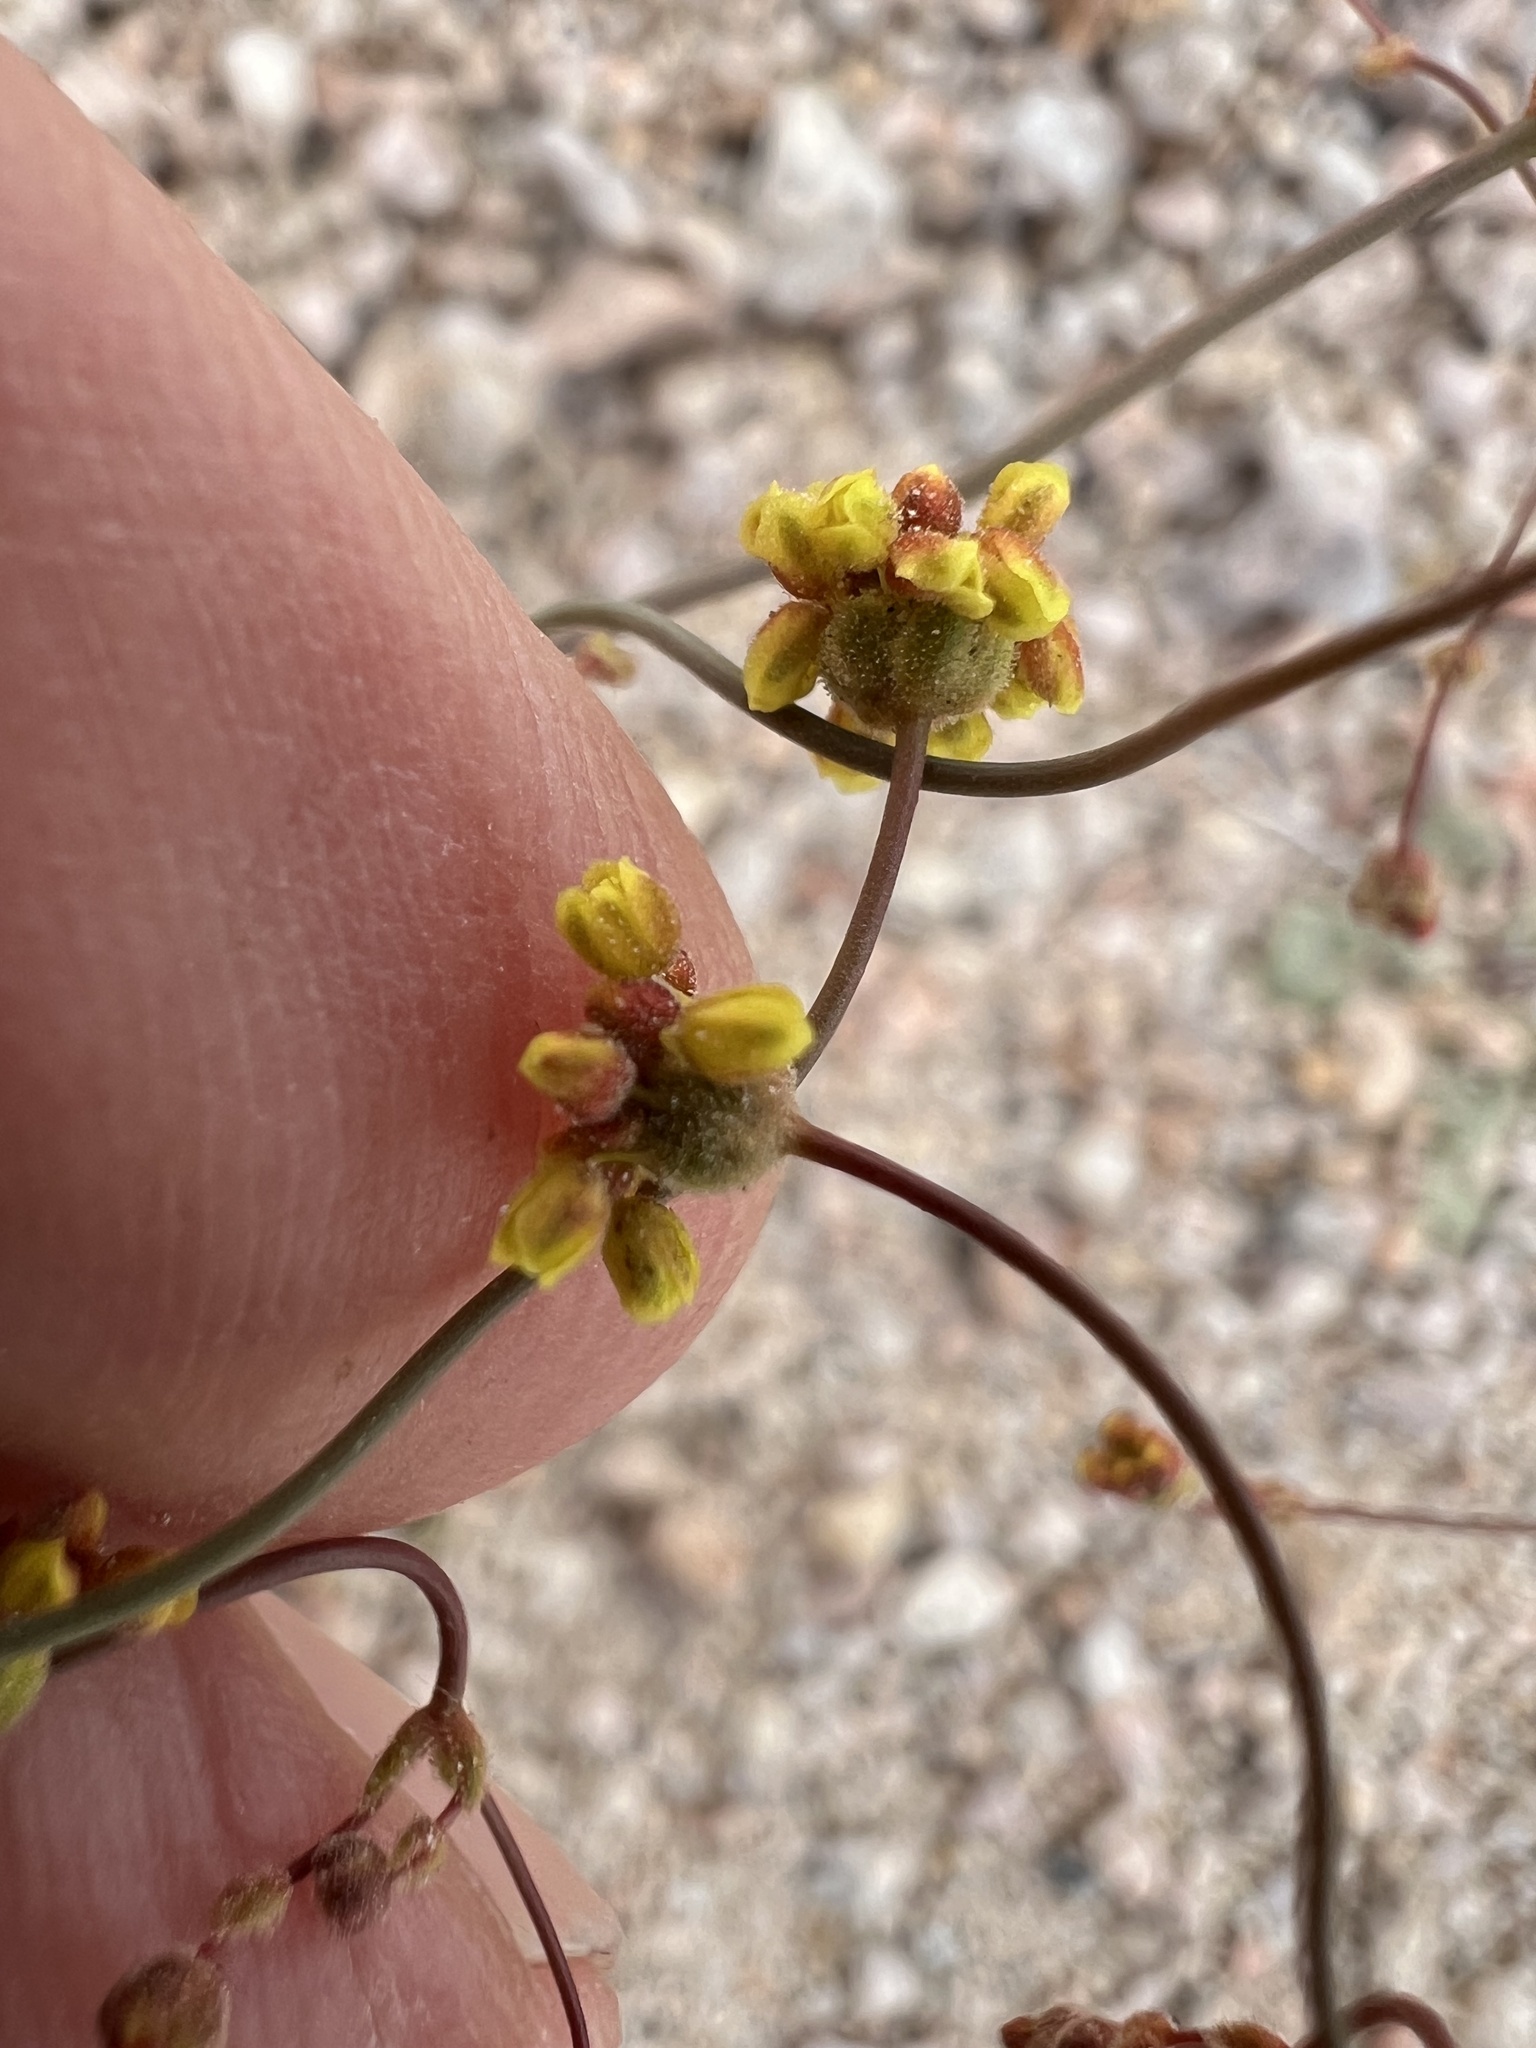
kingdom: Plantae
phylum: Tracheophyta
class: Magnoliopsida
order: Caryophyllales
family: Polygonaceae
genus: Eriogonum
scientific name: Eriogonum pusillum
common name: Yellow turbans
